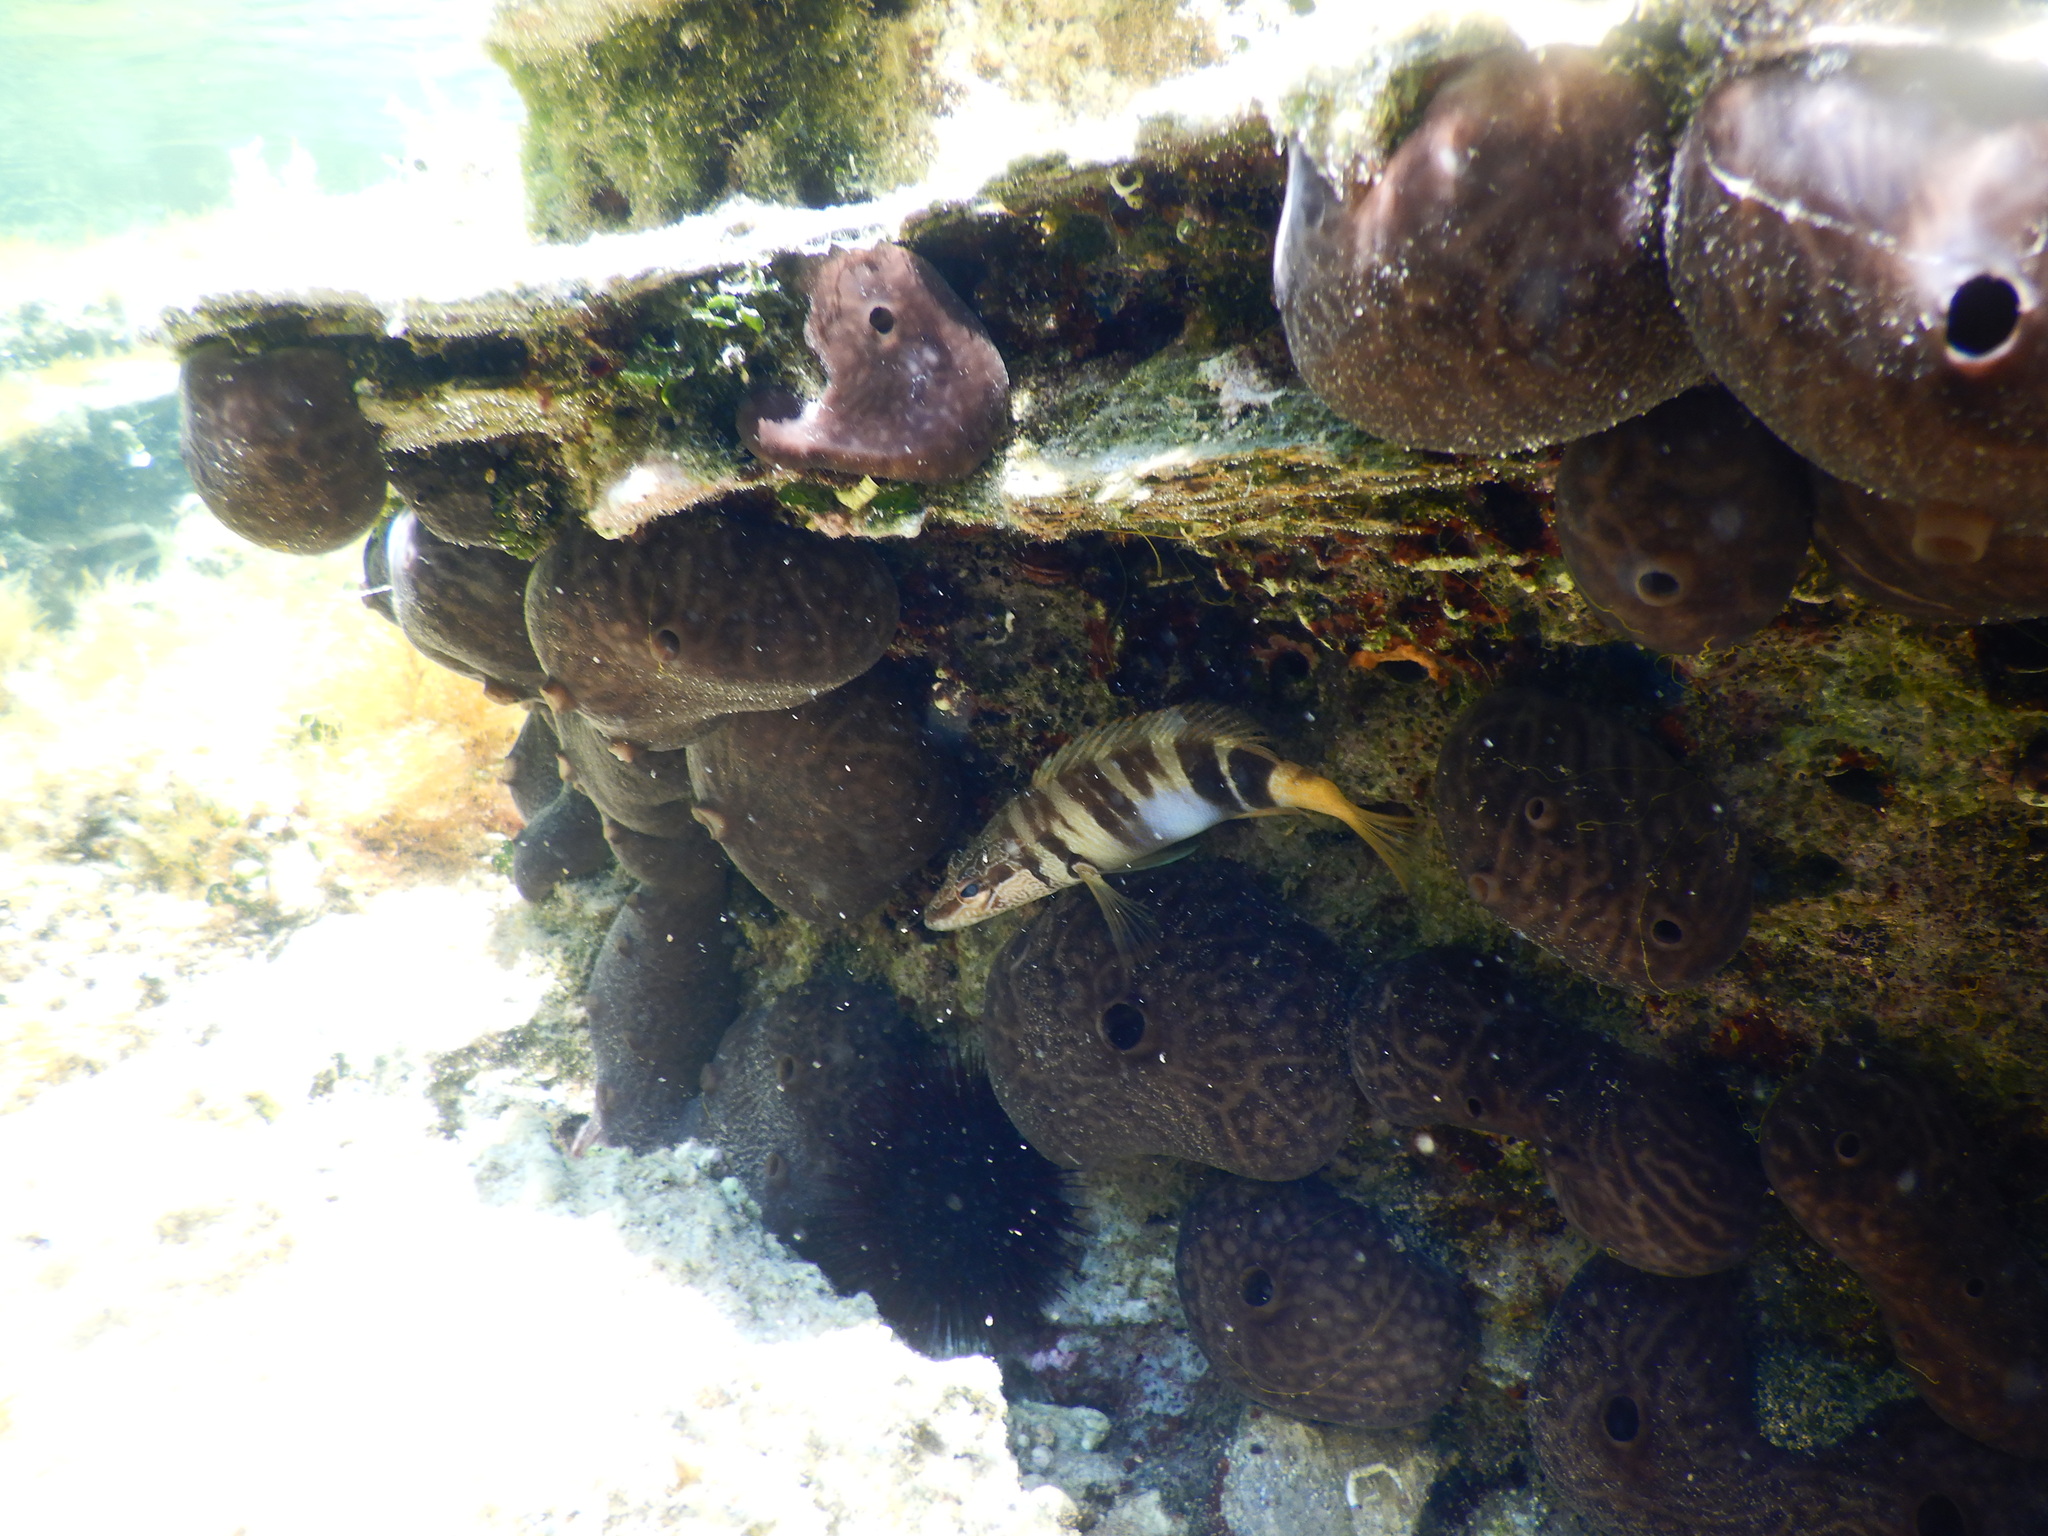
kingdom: Animalia
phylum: Chordata
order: Perciformes
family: Serranidae
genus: Serranus
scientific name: Serranus scriba
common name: Painted comber
